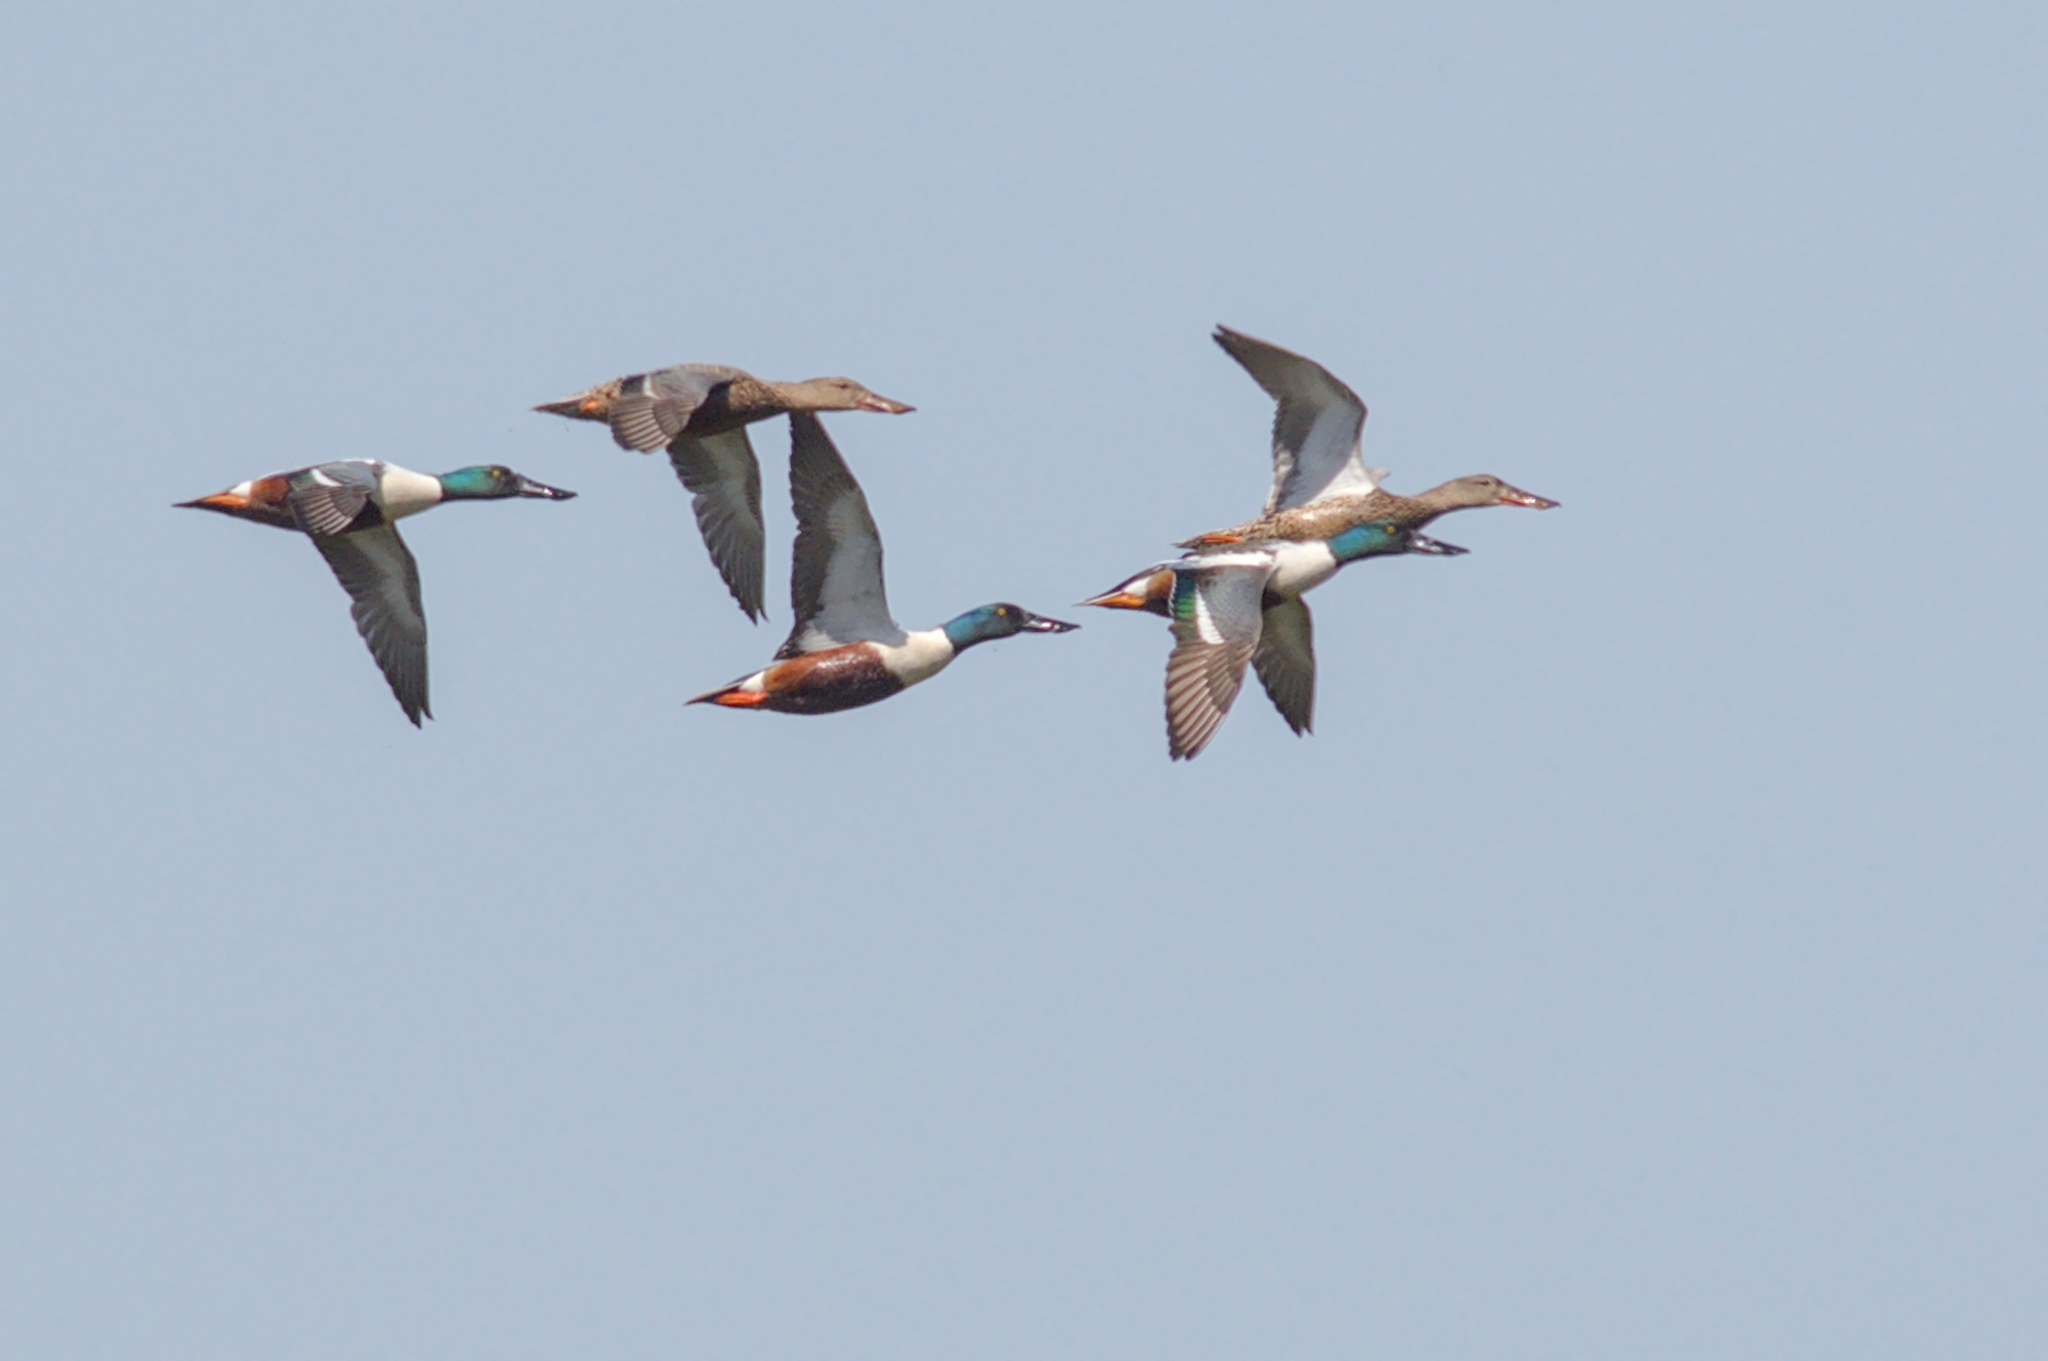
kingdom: Animalia
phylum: Chordata
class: Aves
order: Anseriformes
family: Anatidae
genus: Spatula
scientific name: Spatula clypeata
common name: Northern shoveler
